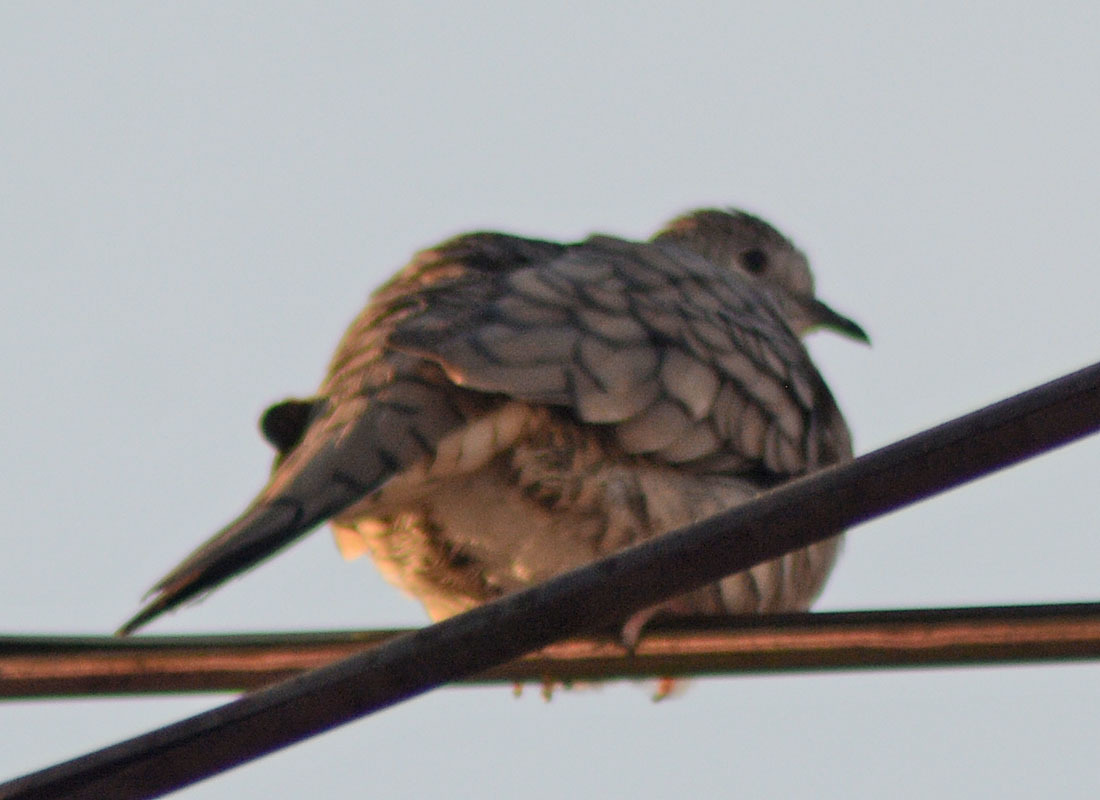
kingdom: Animalia
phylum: Chordata
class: Aves
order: Columbiformes
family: Columbidae
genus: Columbina
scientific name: Columbina inca
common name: Inca dove
